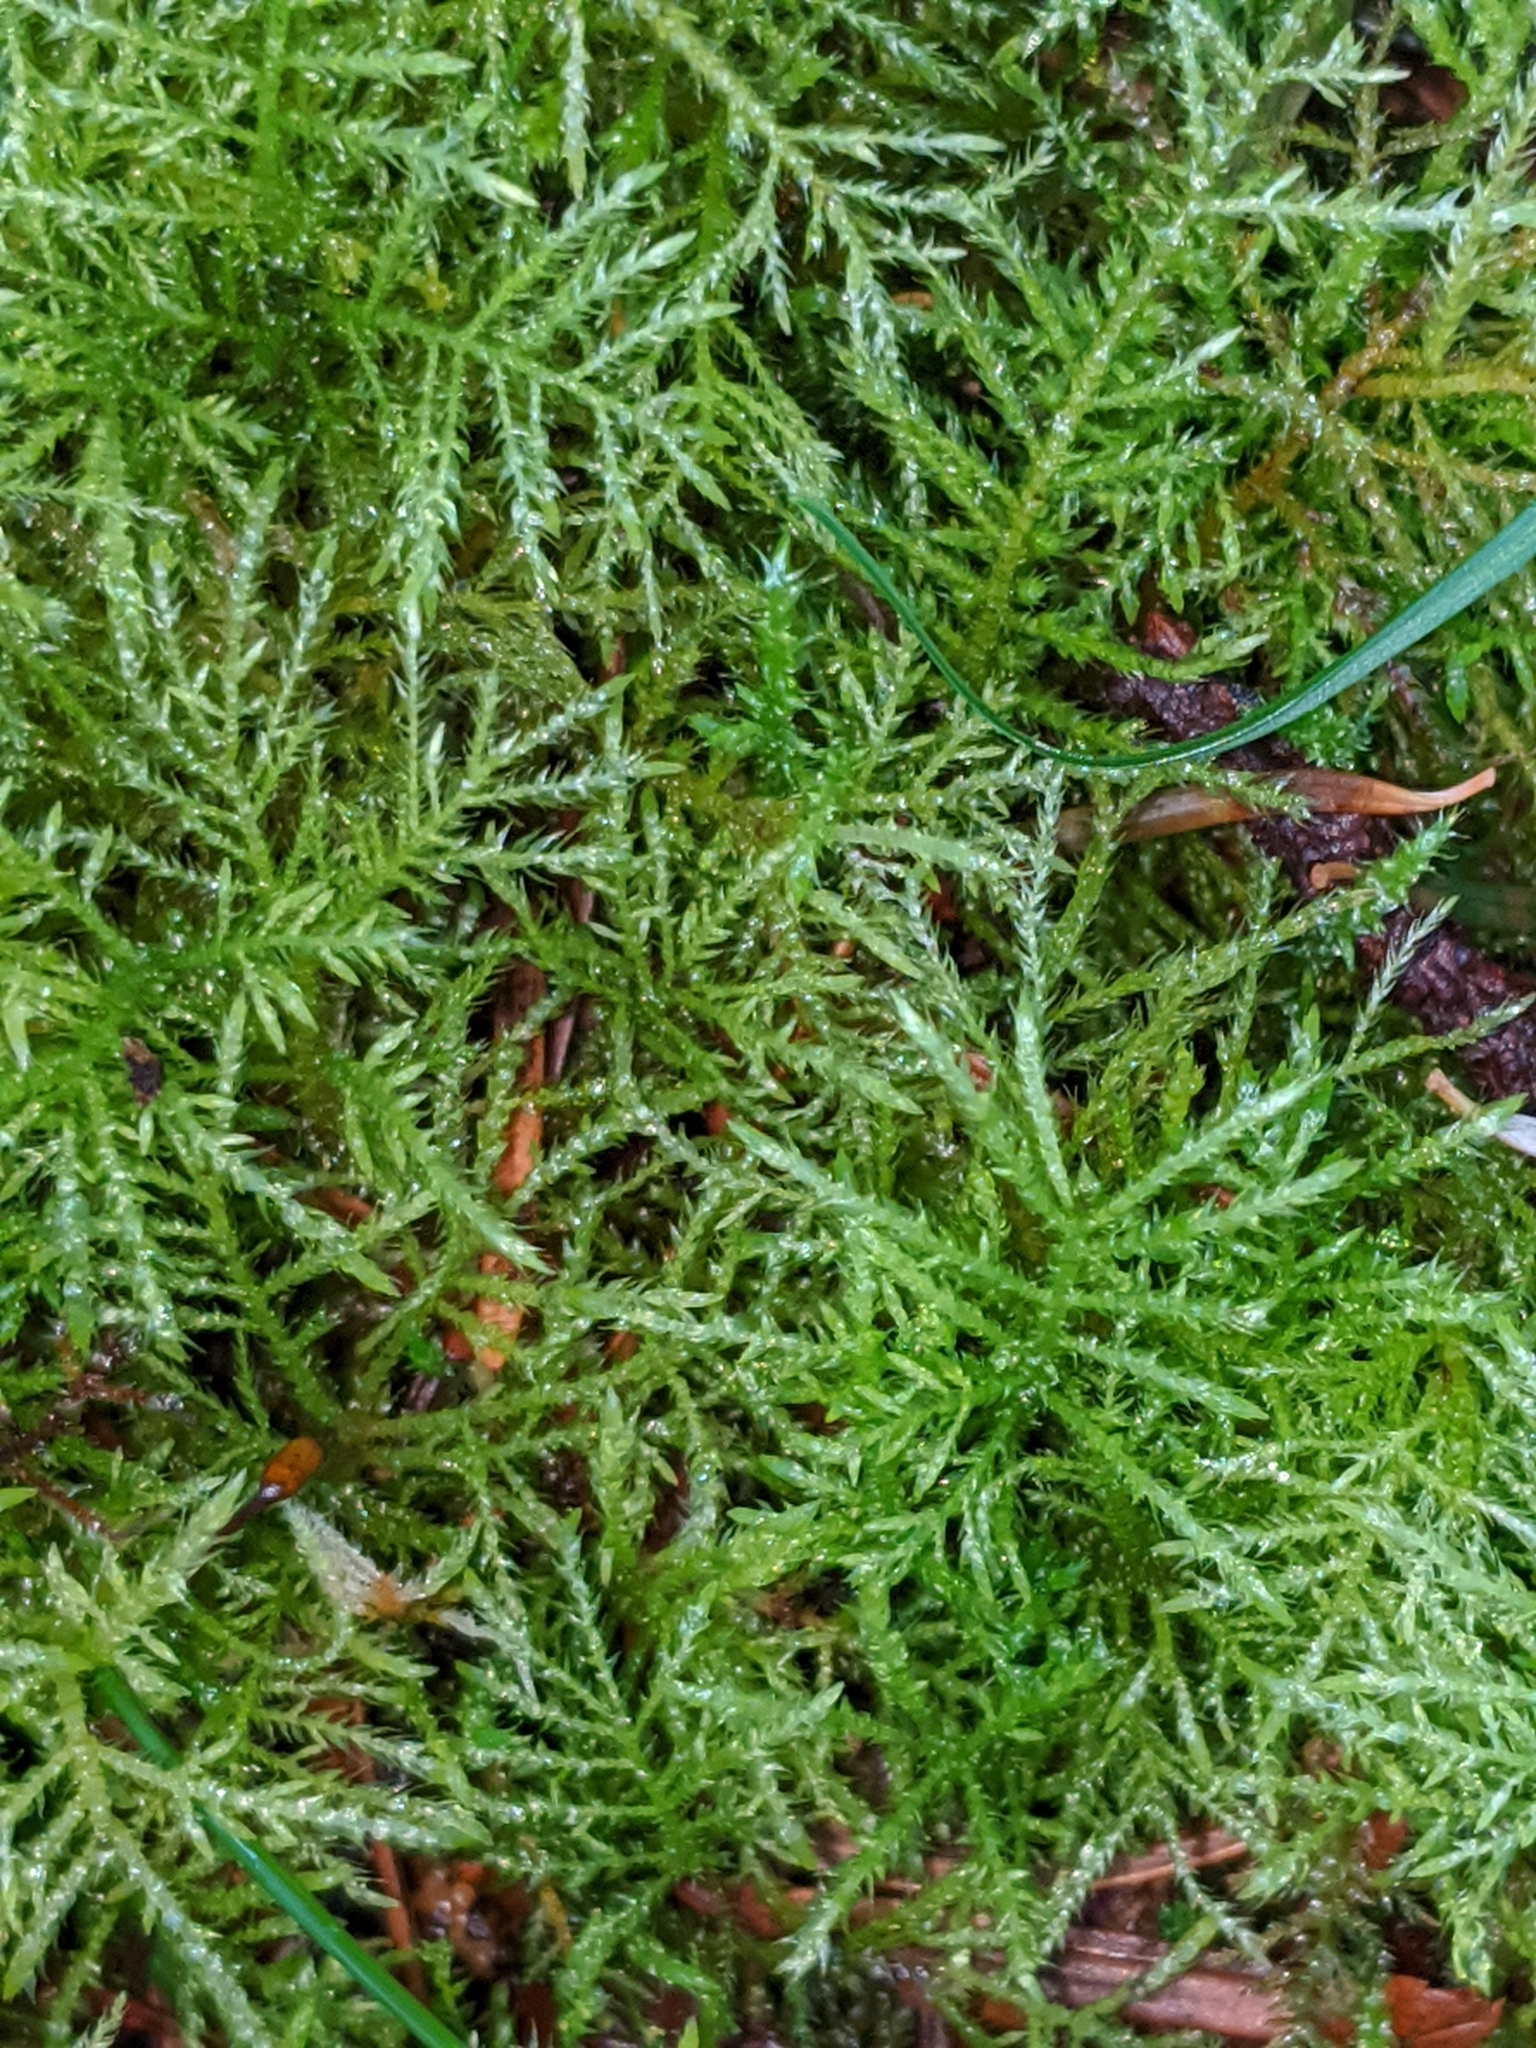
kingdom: Plantae
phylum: Bryophyta
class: Bryopsida
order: Hypnales
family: Brachytheciaceae
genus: Kindbergia
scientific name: Kindbergia praelonga
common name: Slender beaked moss
